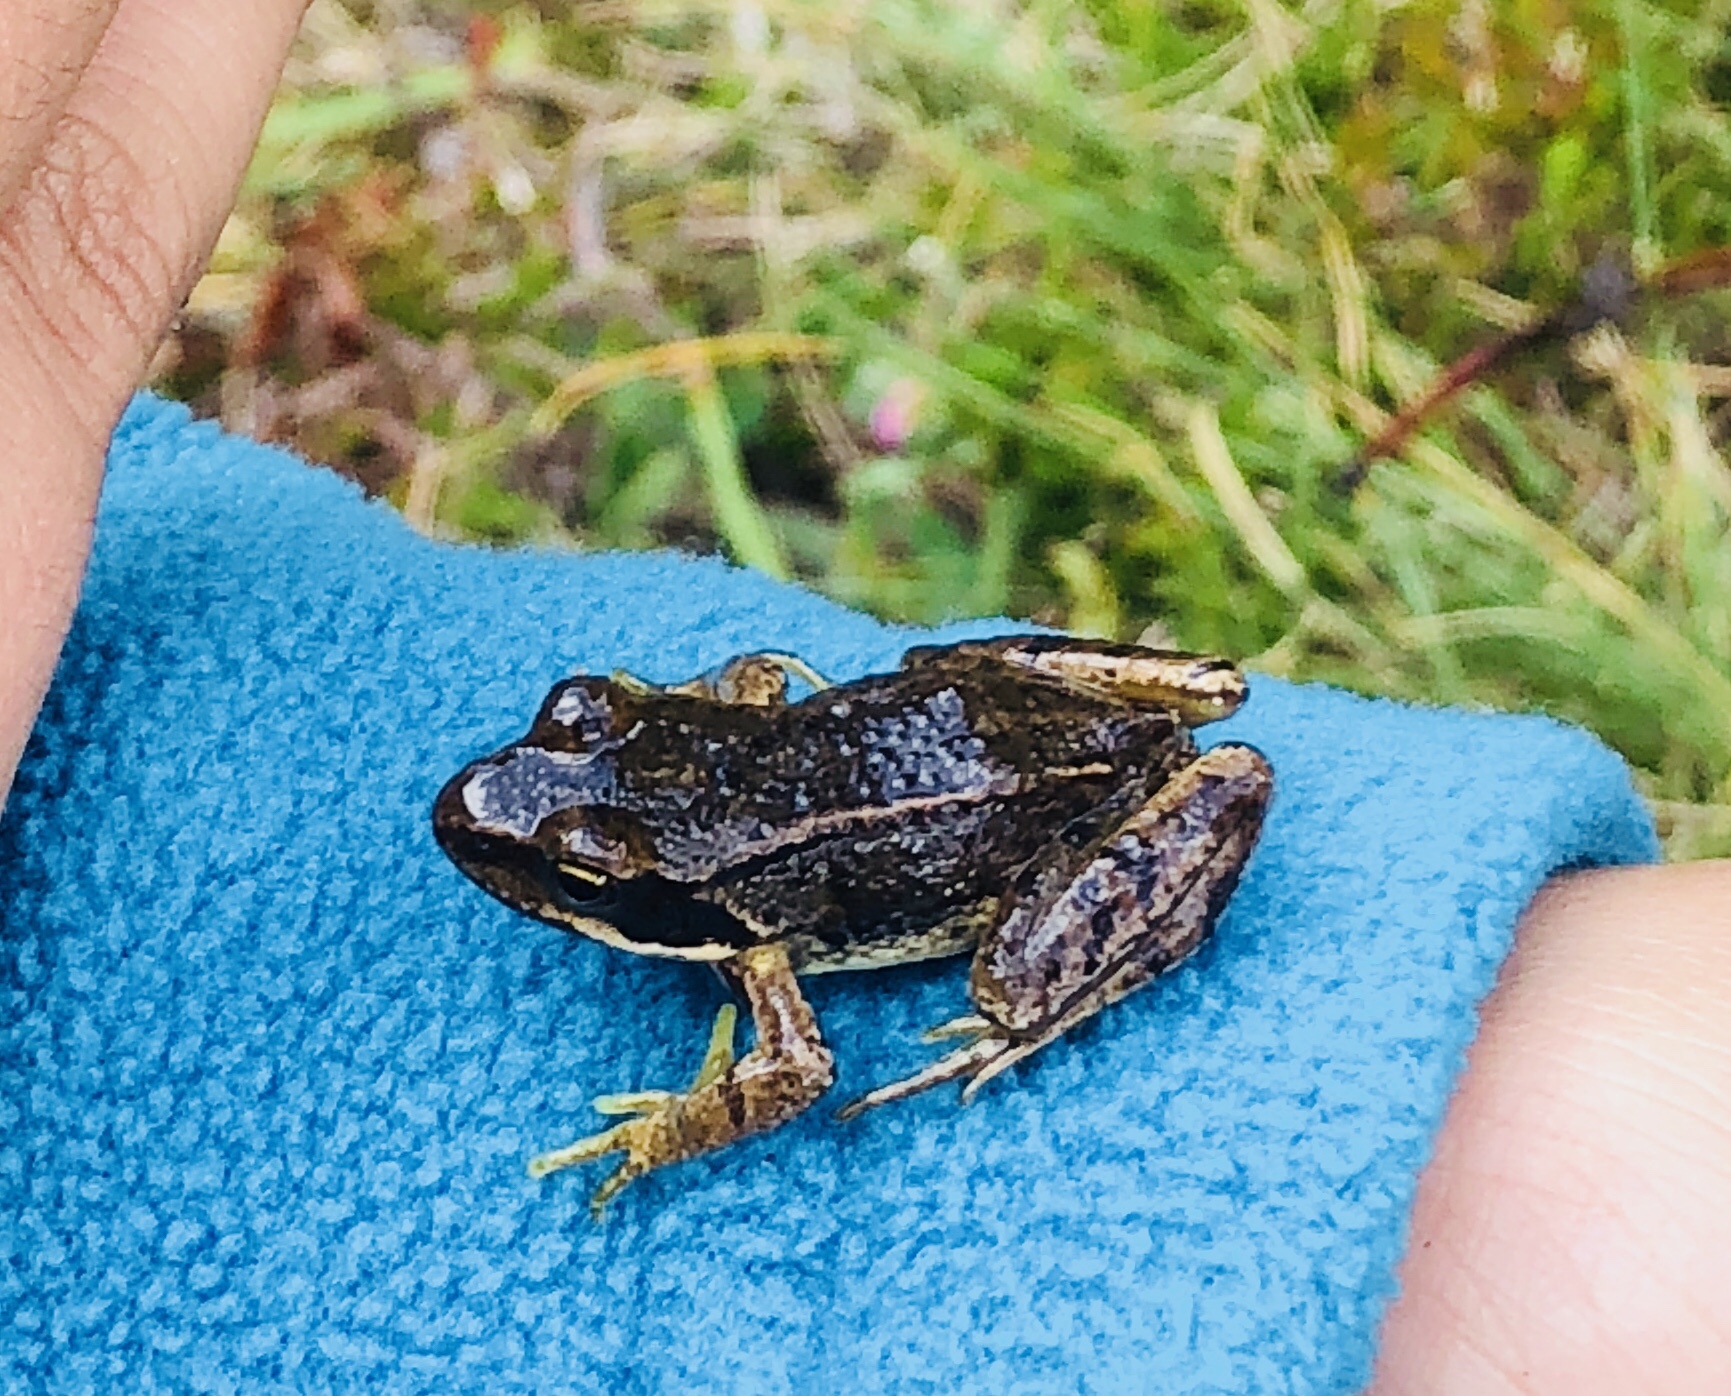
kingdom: Animalia
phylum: Chordata
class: Amphibia
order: Anura
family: Ranidae
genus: Rana
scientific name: Rana temporaria
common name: Common frog
